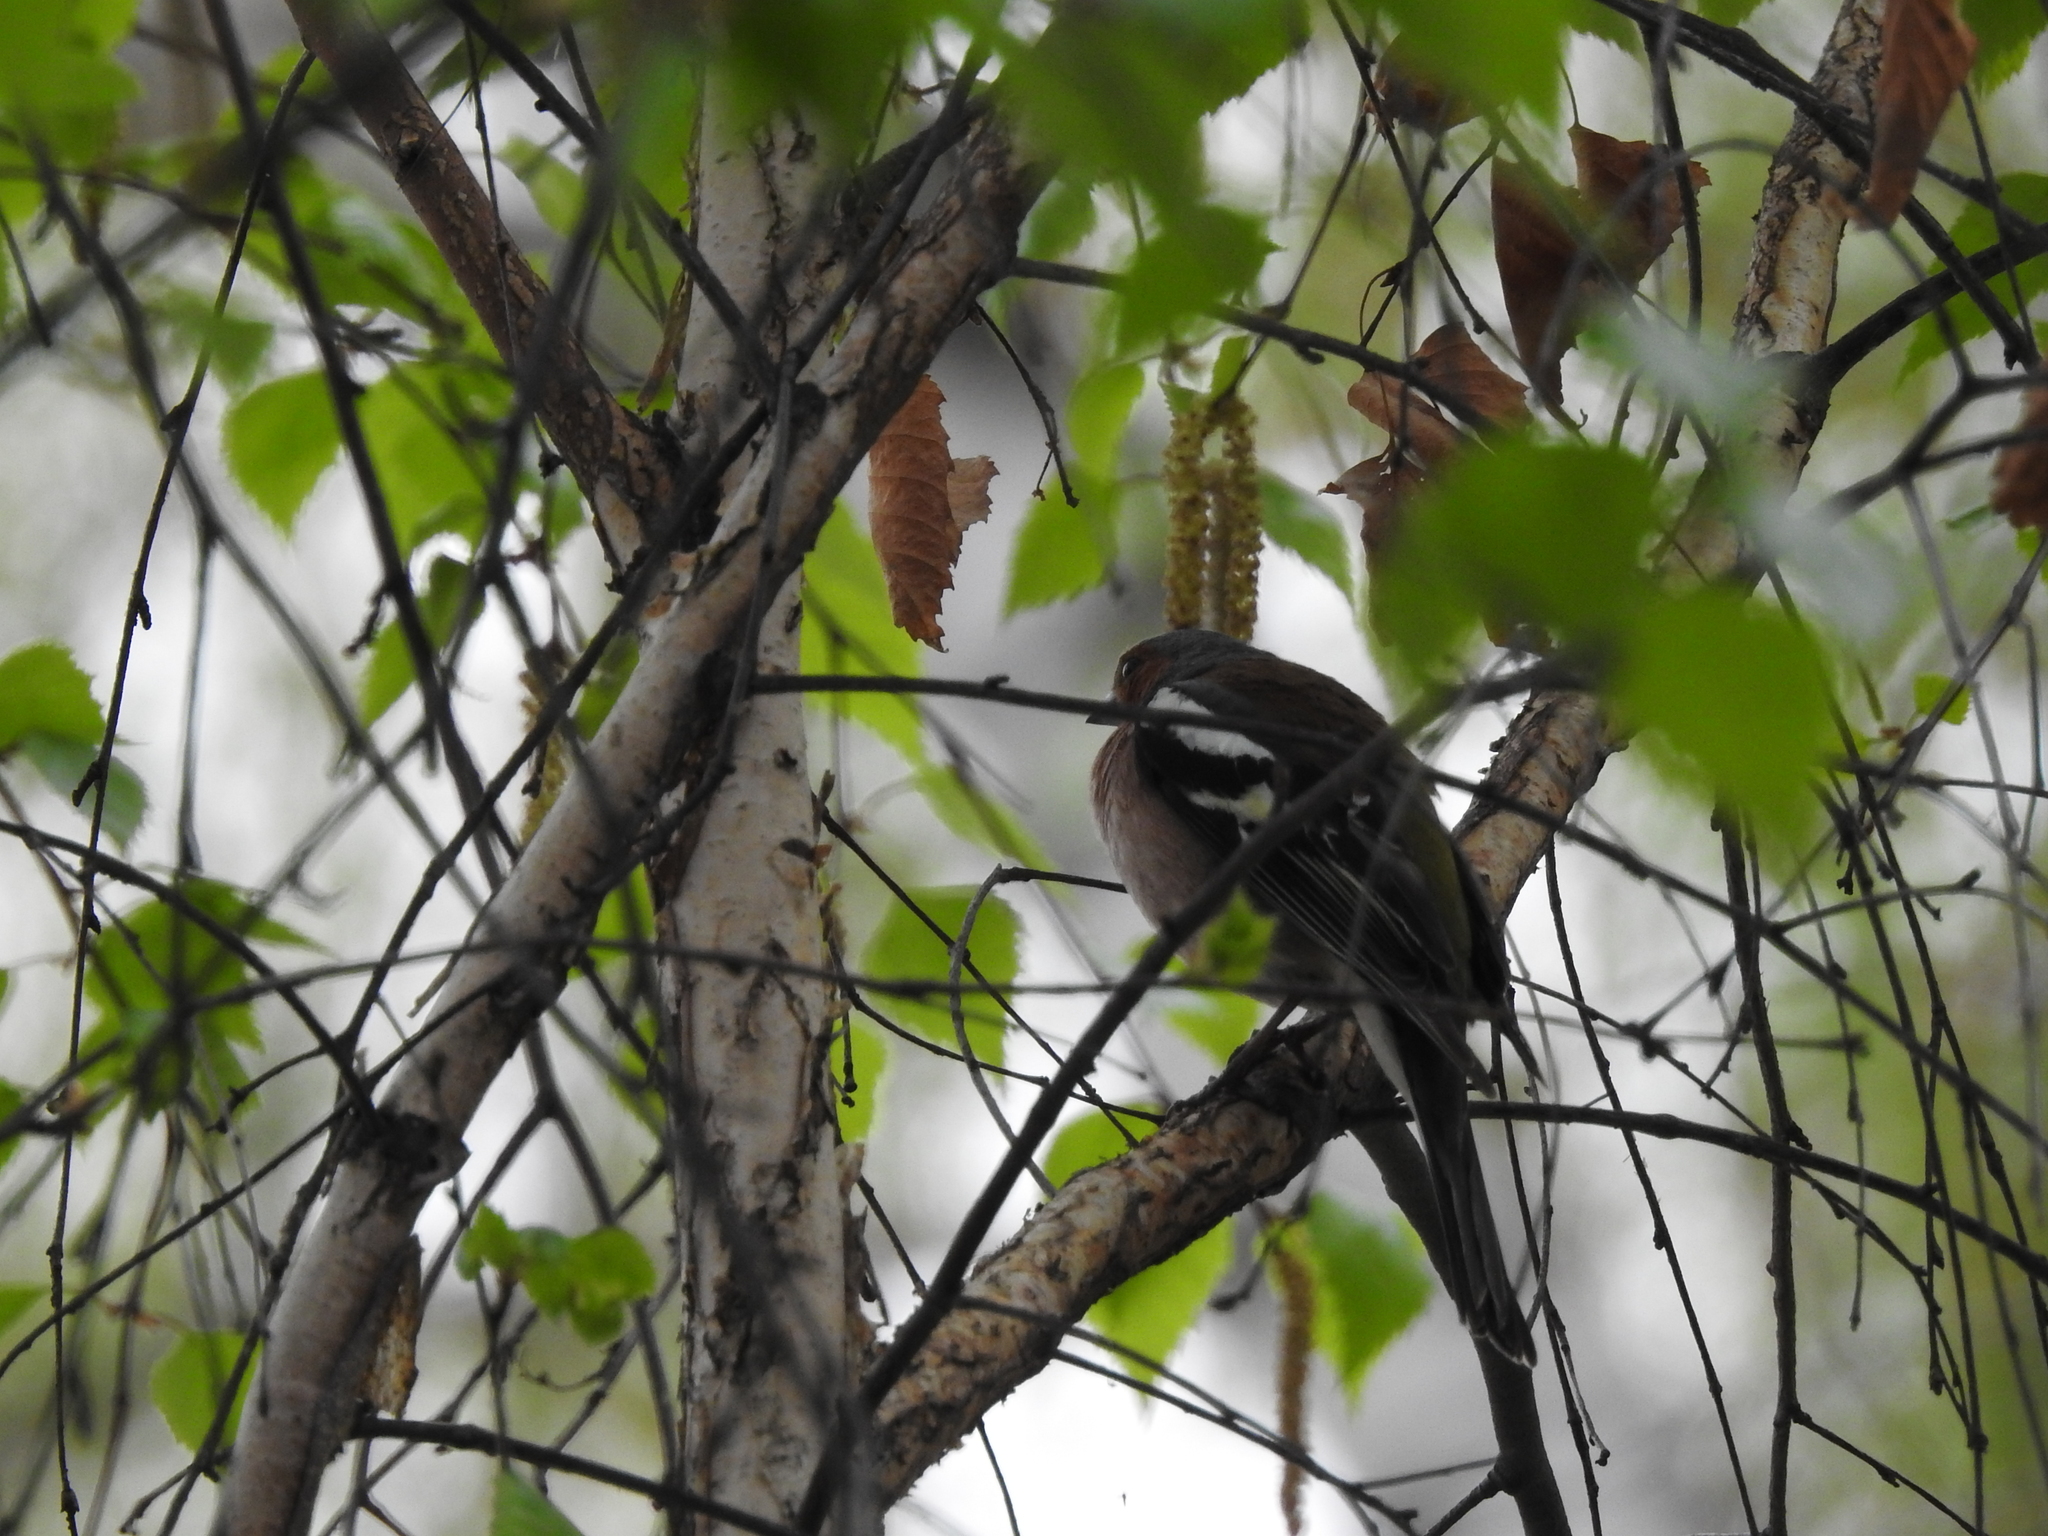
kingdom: Animalia
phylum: Chordata
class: Aves
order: Passeriformes
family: Fringillidae
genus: Fringilla
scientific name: Fringilla coelebs
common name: Common chaffinch
